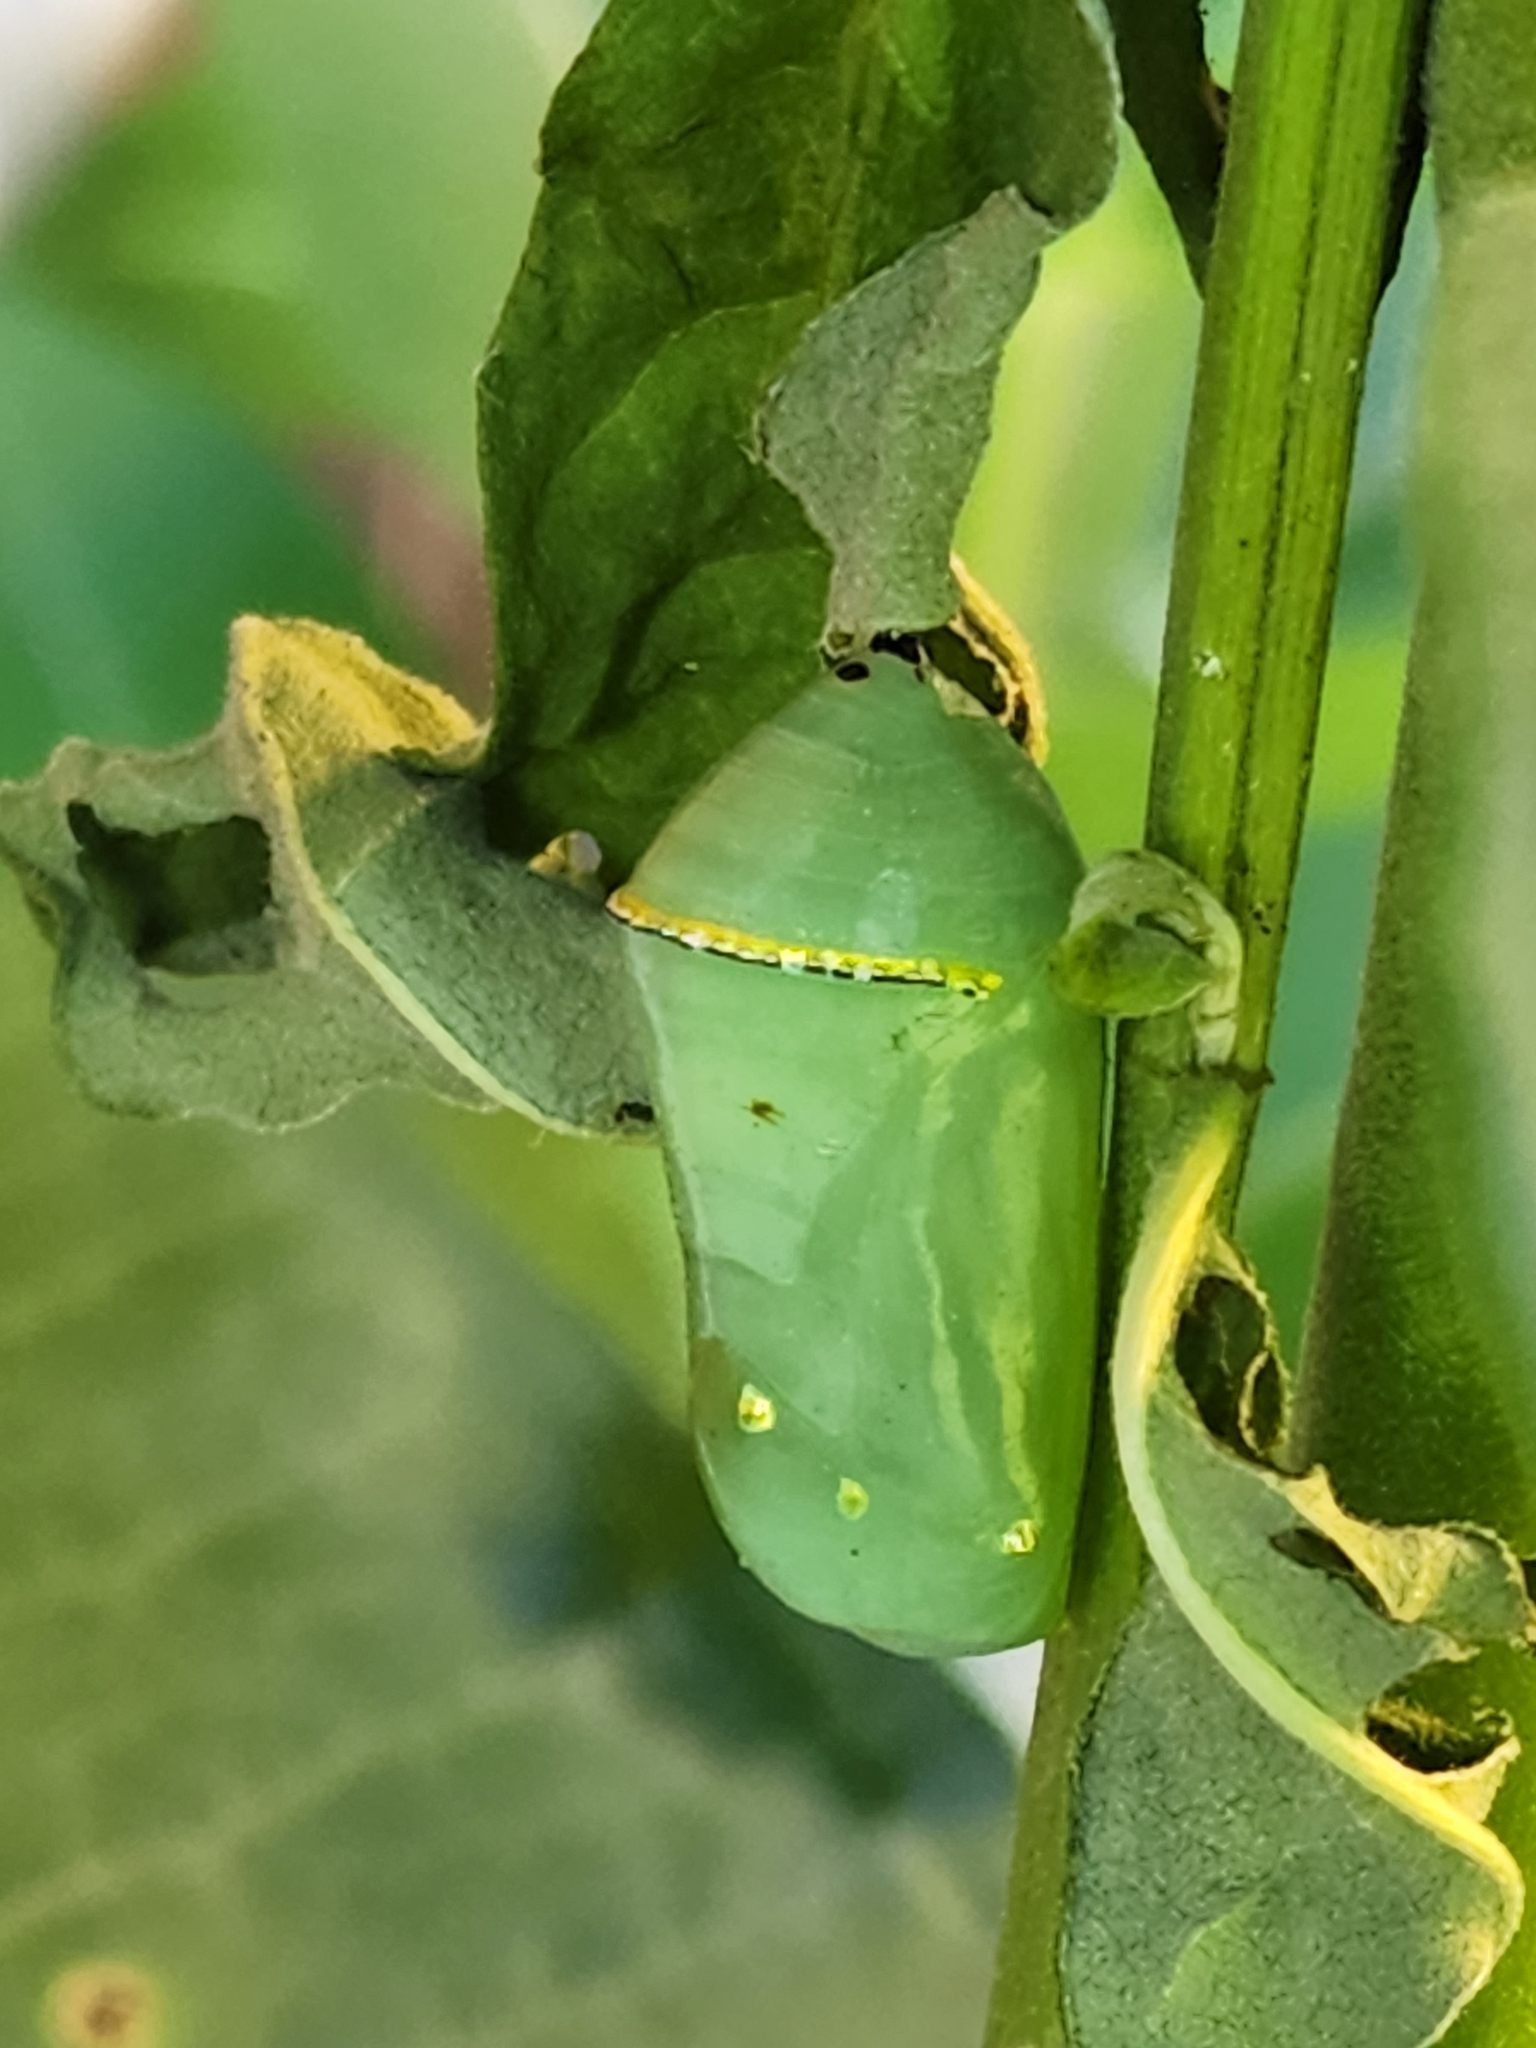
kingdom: Animalia
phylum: Arthropoda
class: Insecta
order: Lepidoptera
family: Nymphalidae
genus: Danaus
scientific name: Danaus plexippus
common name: Monarch
